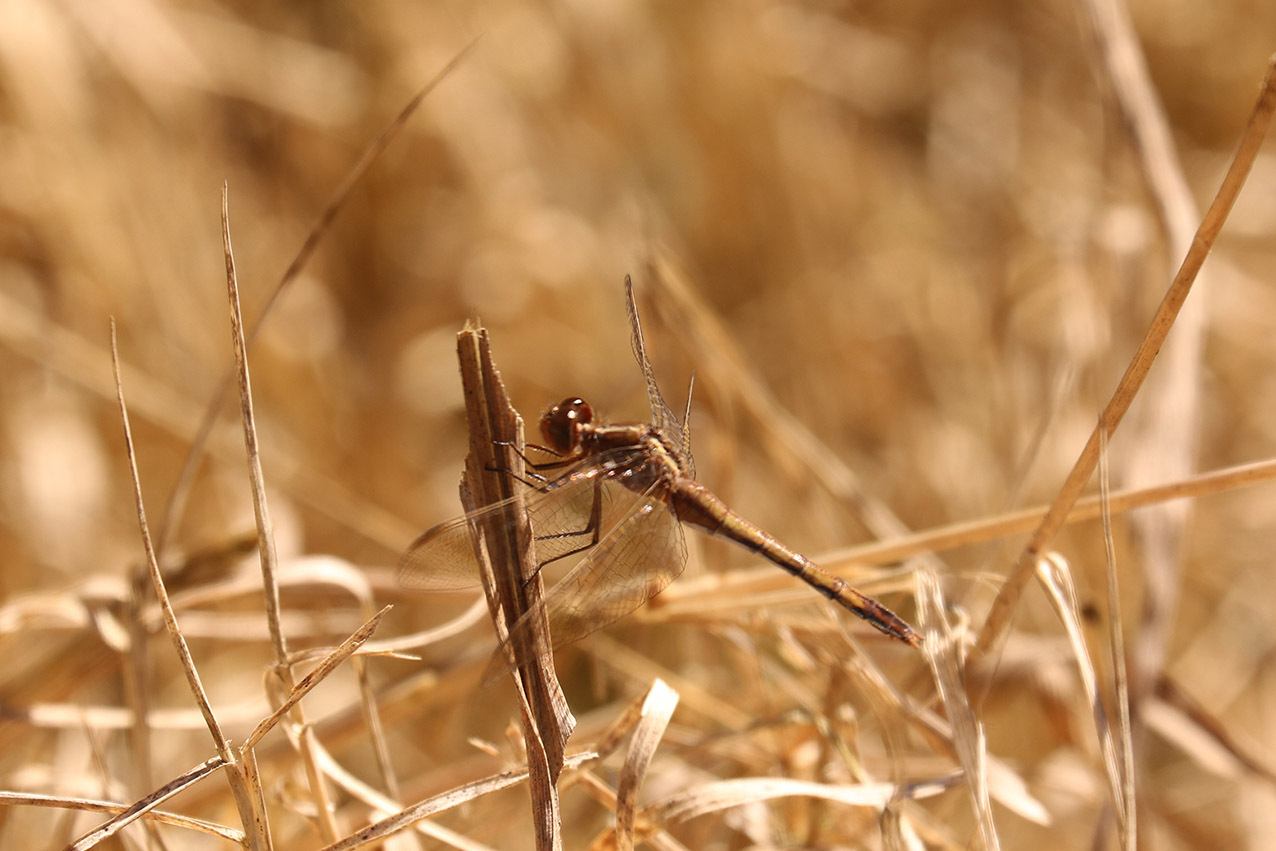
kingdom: Animalia
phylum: Arthropoda
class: Insecta
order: Odonata
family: Libellulidae
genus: Erythrodiplax
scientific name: Erythrodiplax nigricans
